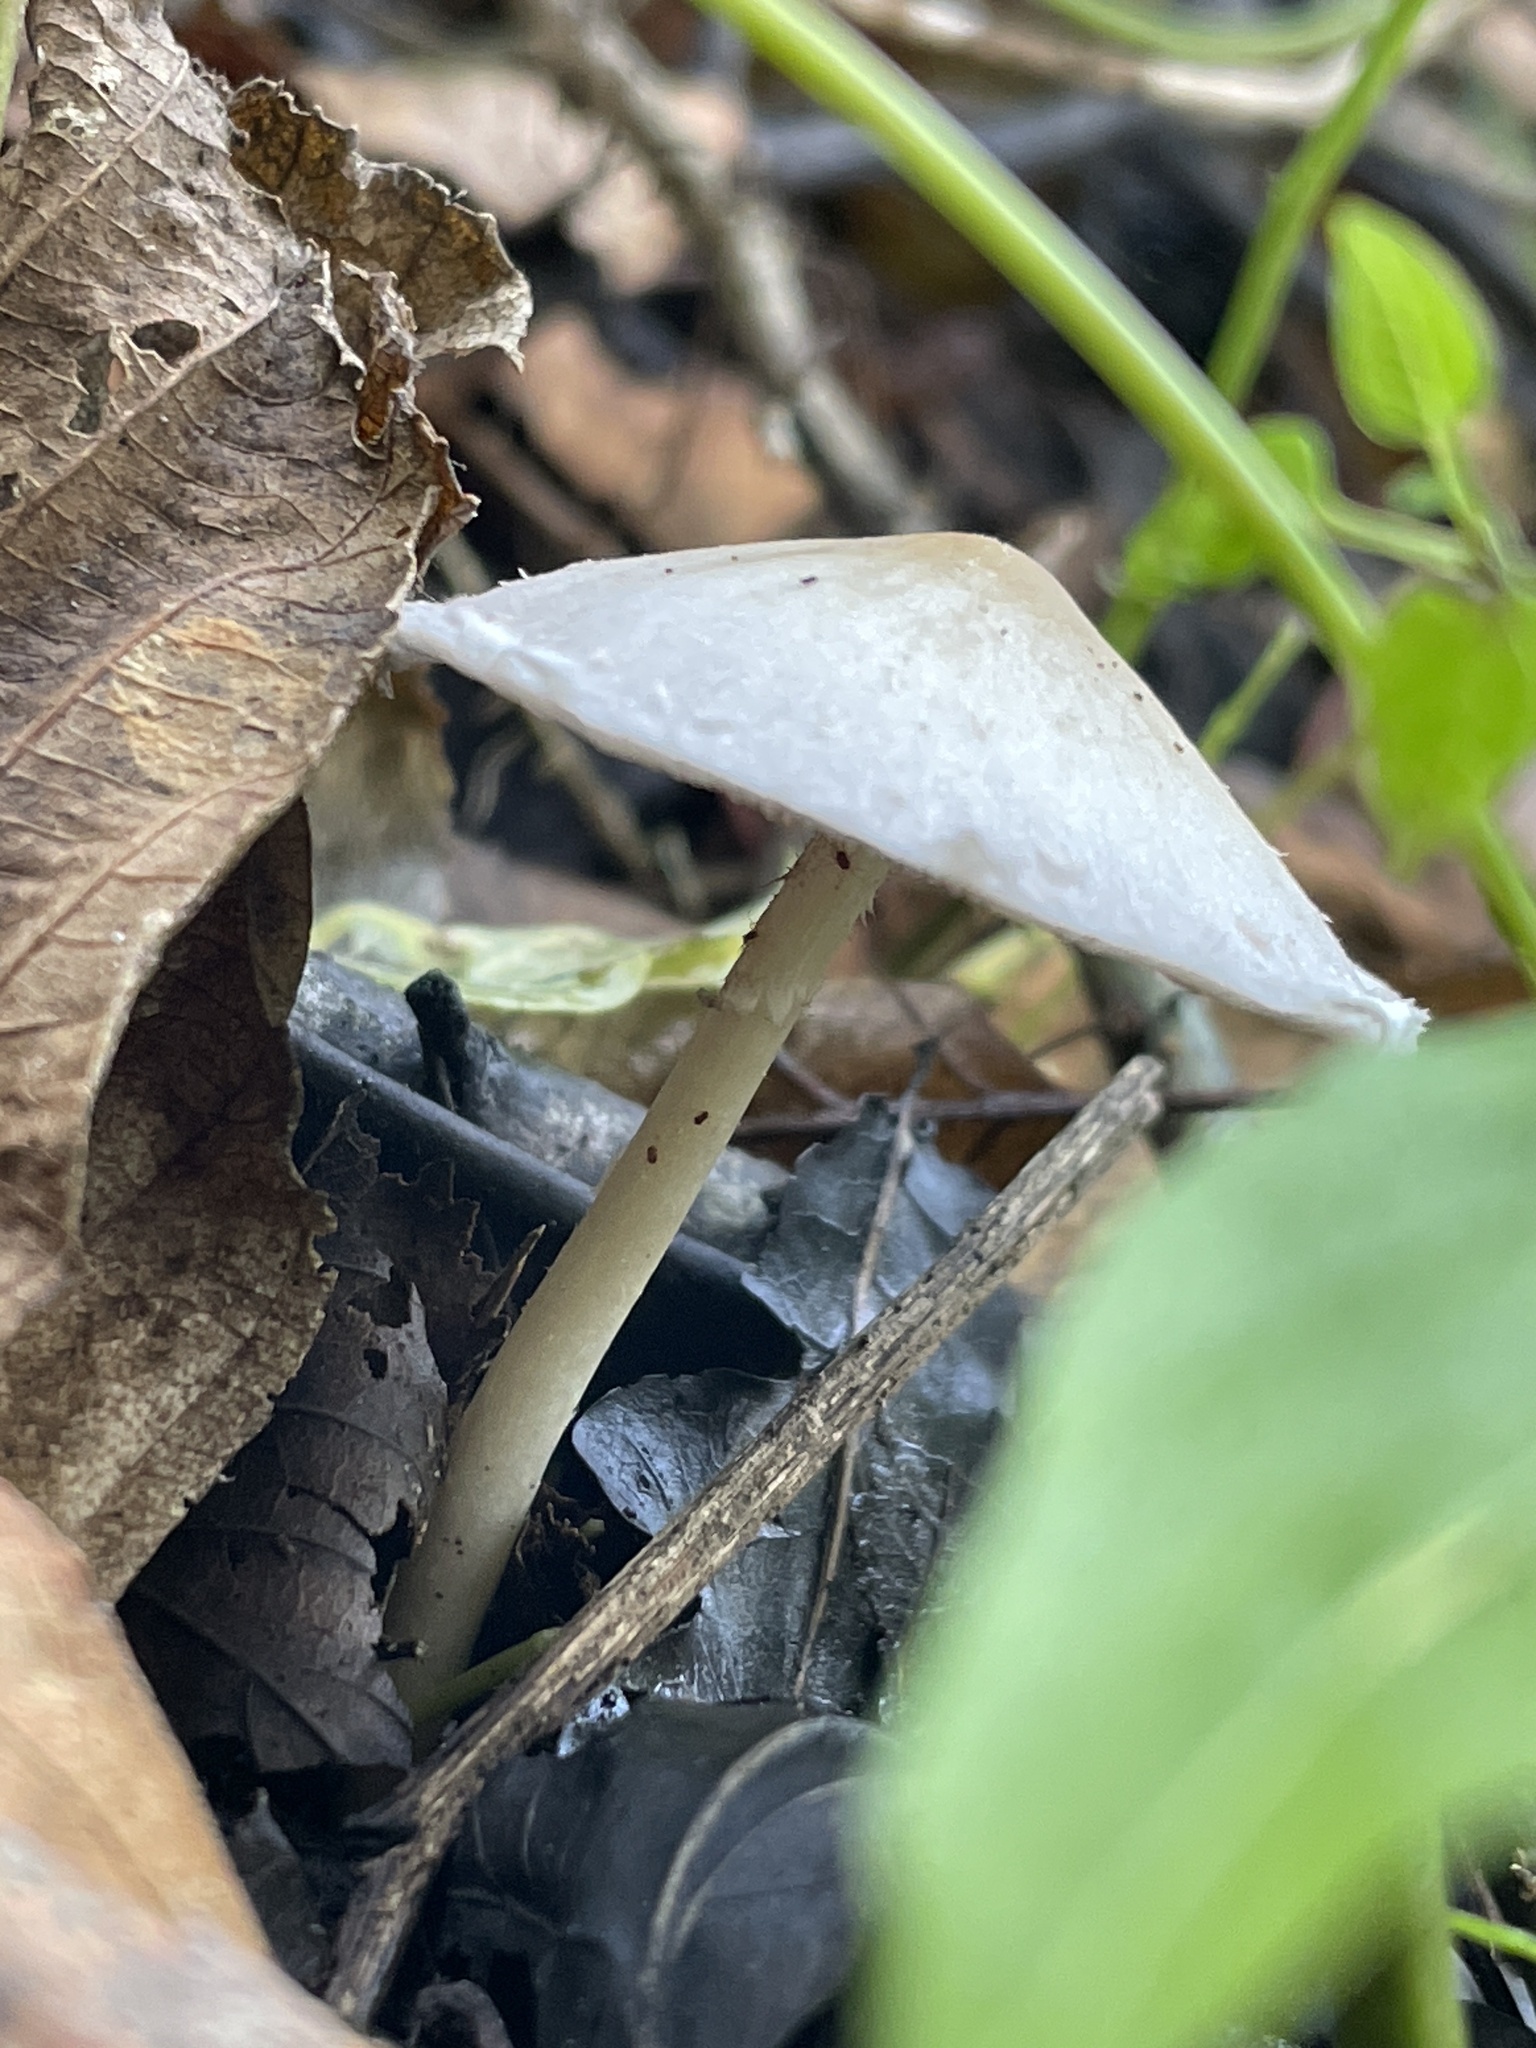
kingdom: Fungi
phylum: Basidiomycota
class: Agaricomycetes
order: Agaricales
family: Psathyrellaceae
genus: Candolleomyces
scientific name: Candolleomyces candolleanus
